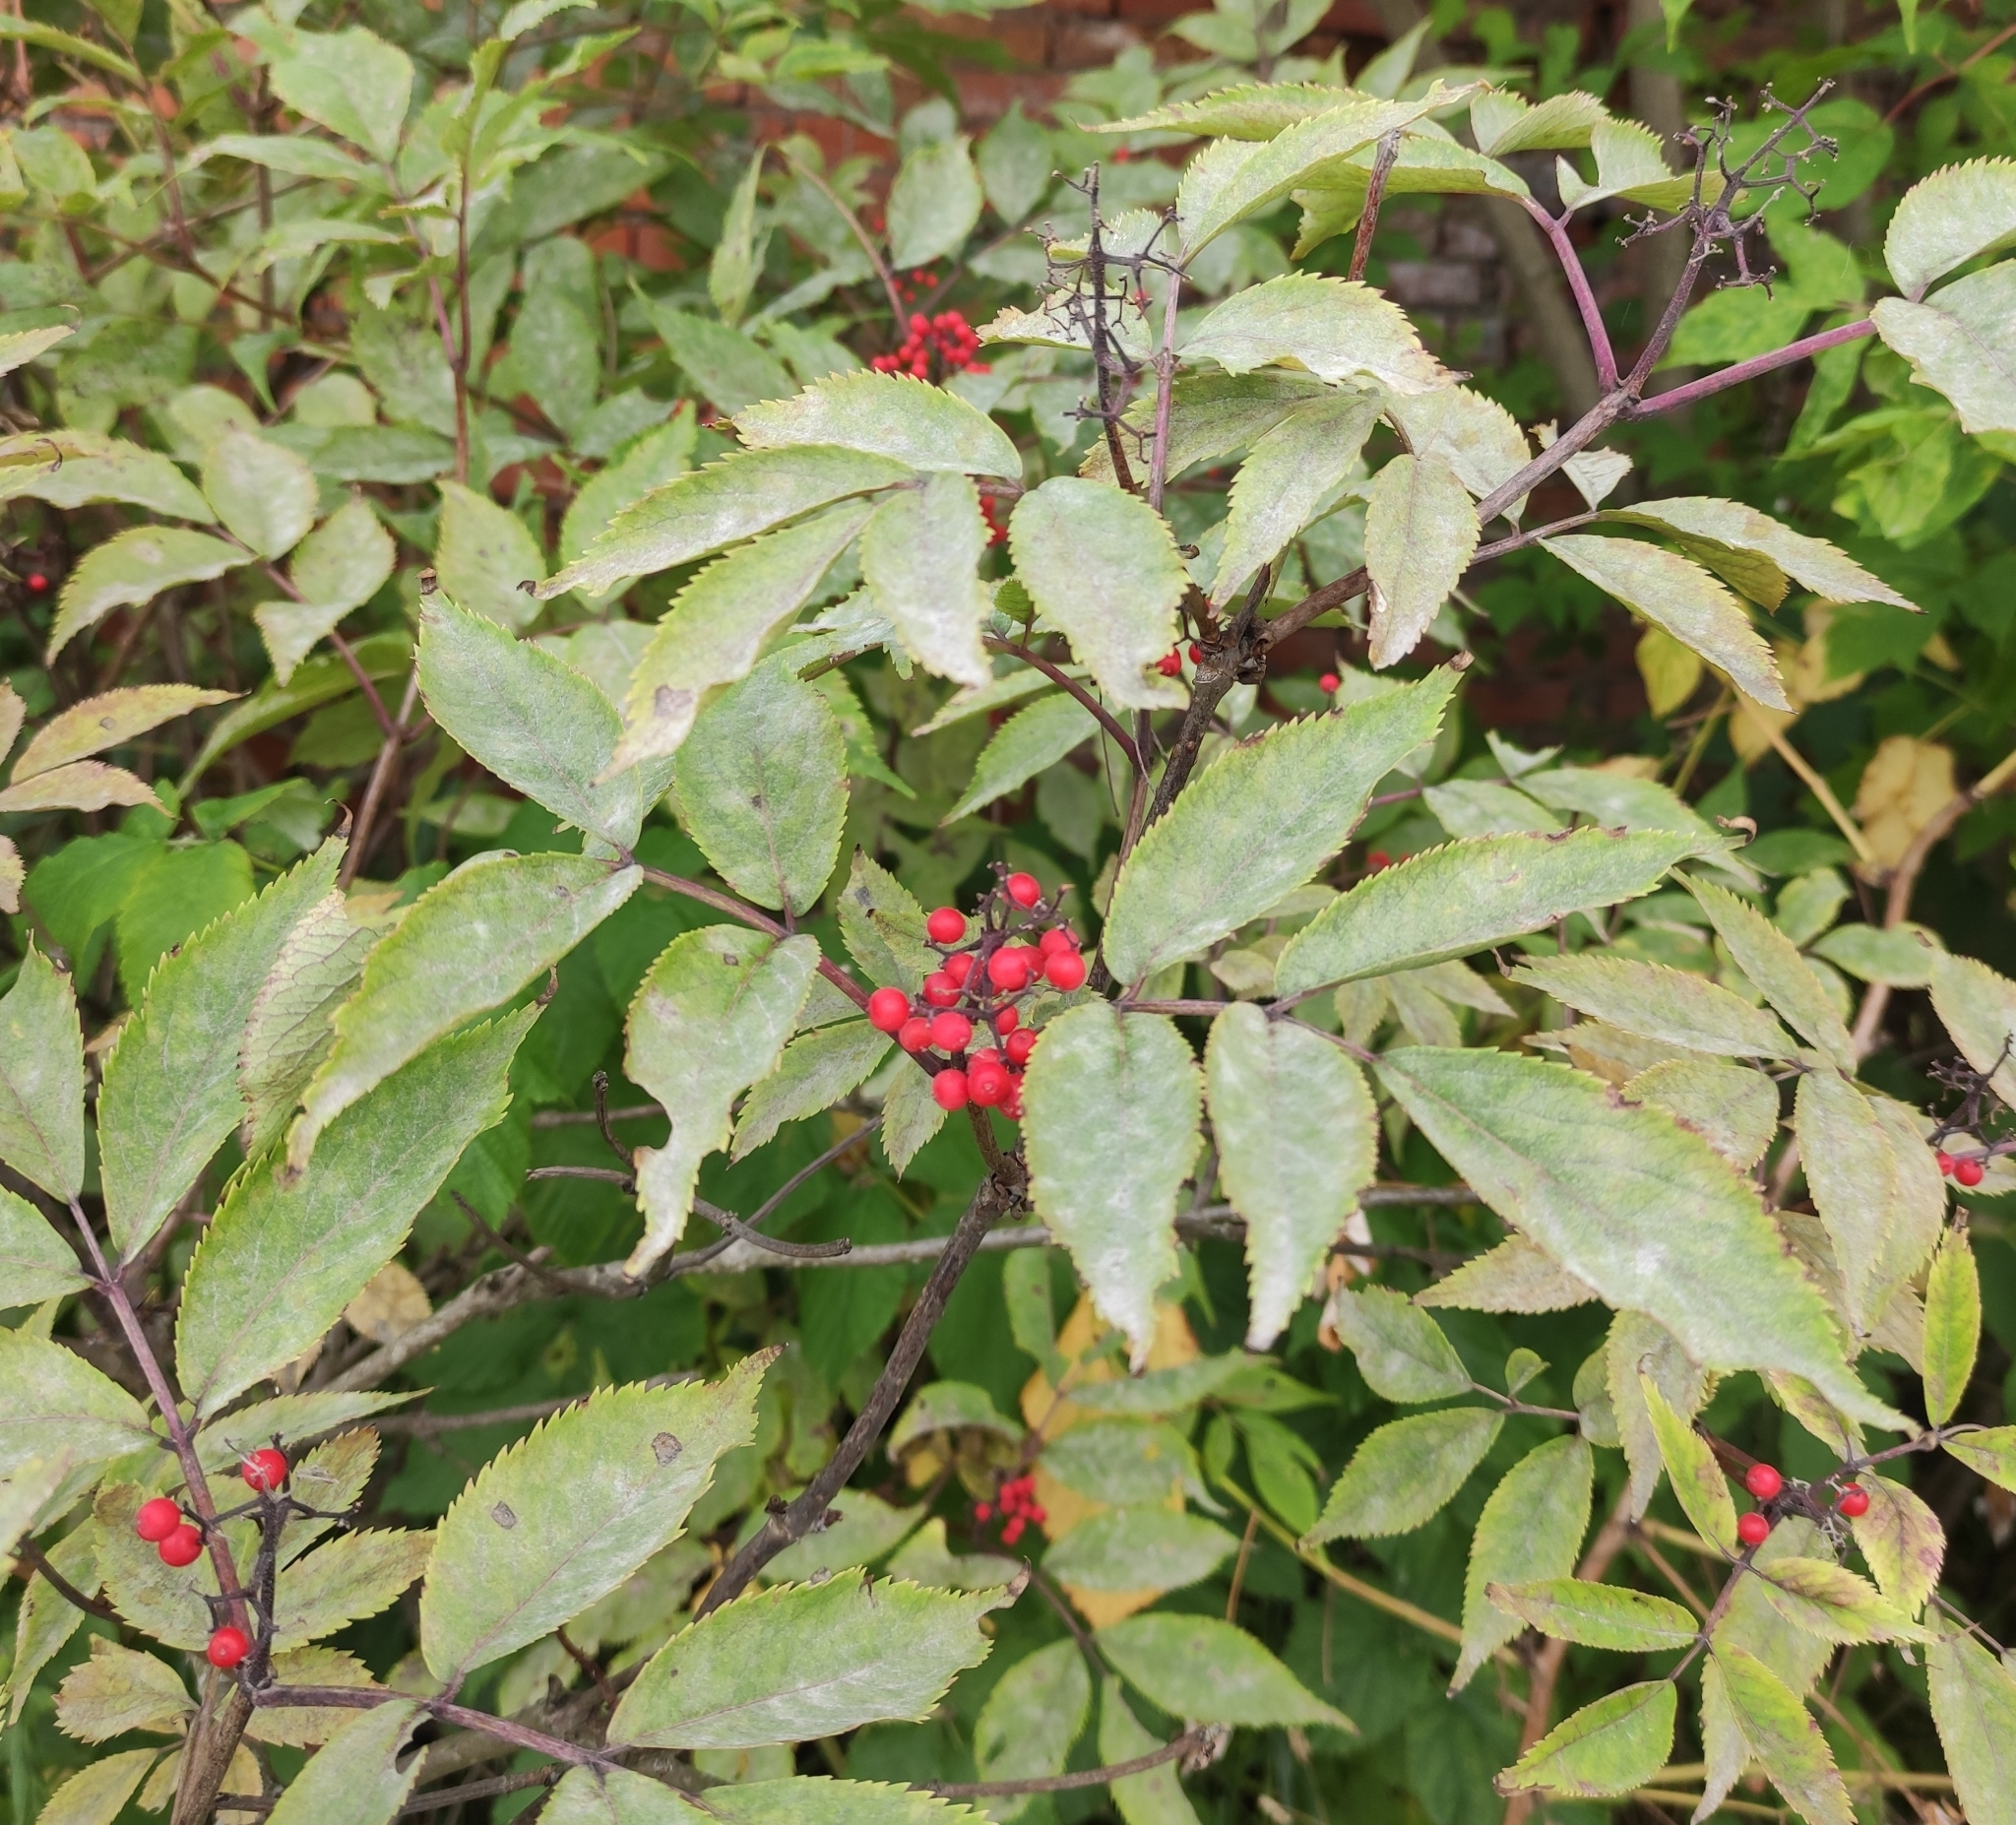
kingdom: Plantae
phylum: Tracheophyta
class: Magnoliopsida
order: Dipsacales
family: Viburnaceae
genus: Sambucus
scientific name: Sambucus racemosa
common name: Red-berried elder
